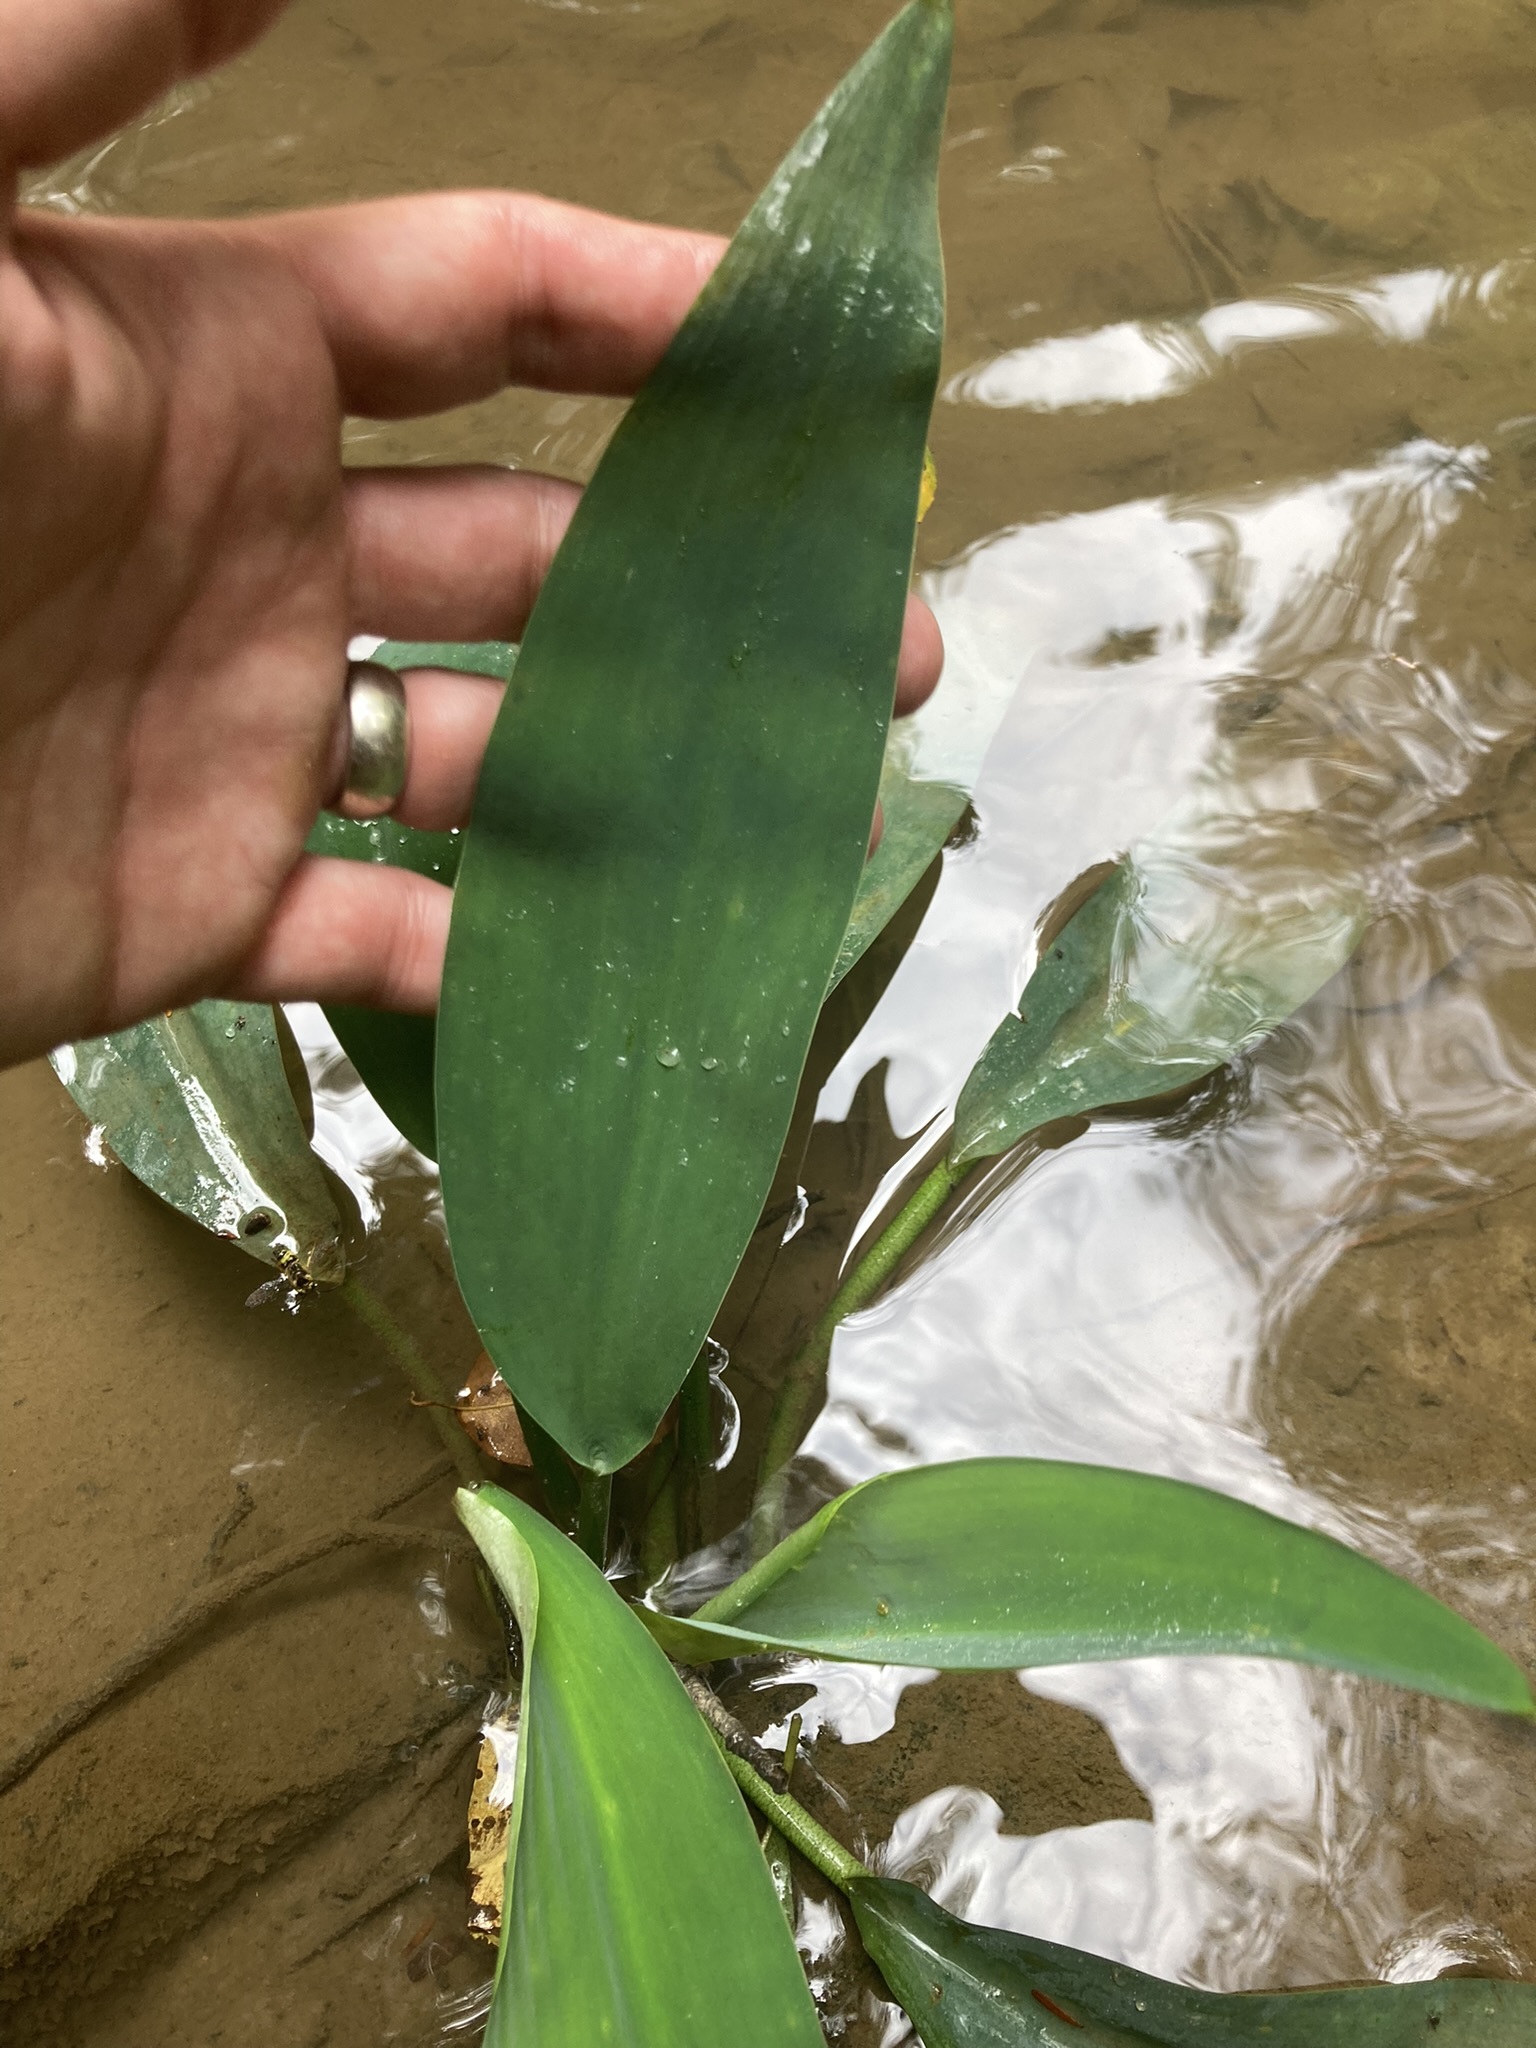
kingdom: Plantae
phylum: Tracheophyta
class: Liliopsida
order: Alismatales
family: Araceae
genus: Orontium
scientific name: Orontium aquaticum
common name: Golden-club
